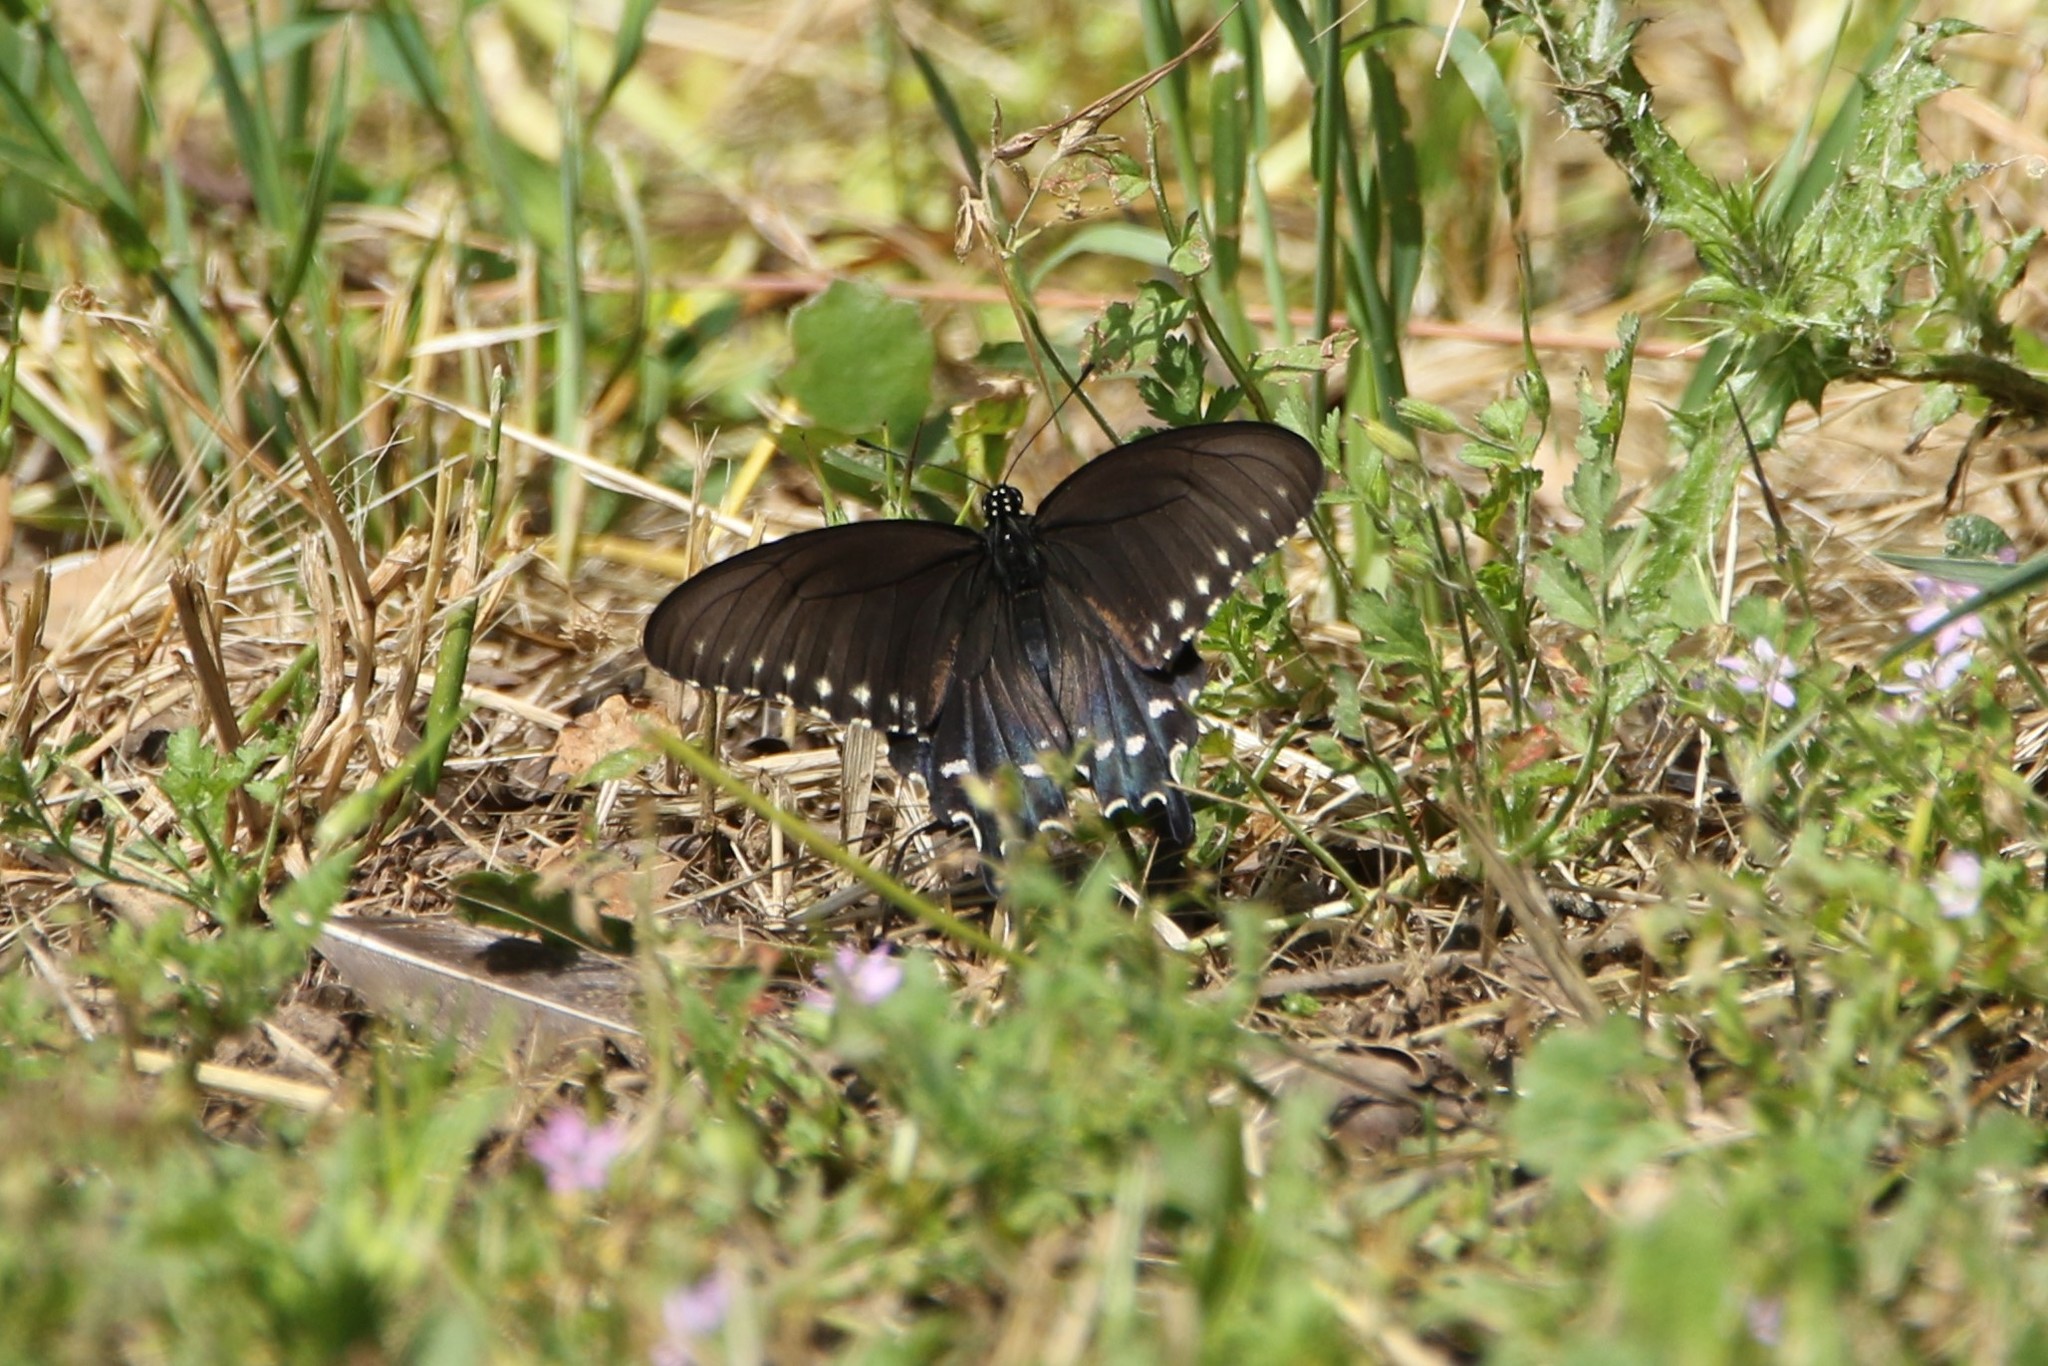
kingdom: Animalia
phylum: Arthropoda
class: Insecta
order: Lepidoptera
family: Papilionidae
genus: Battus
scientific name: Battus philenor
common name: Pipevine swallowtail
